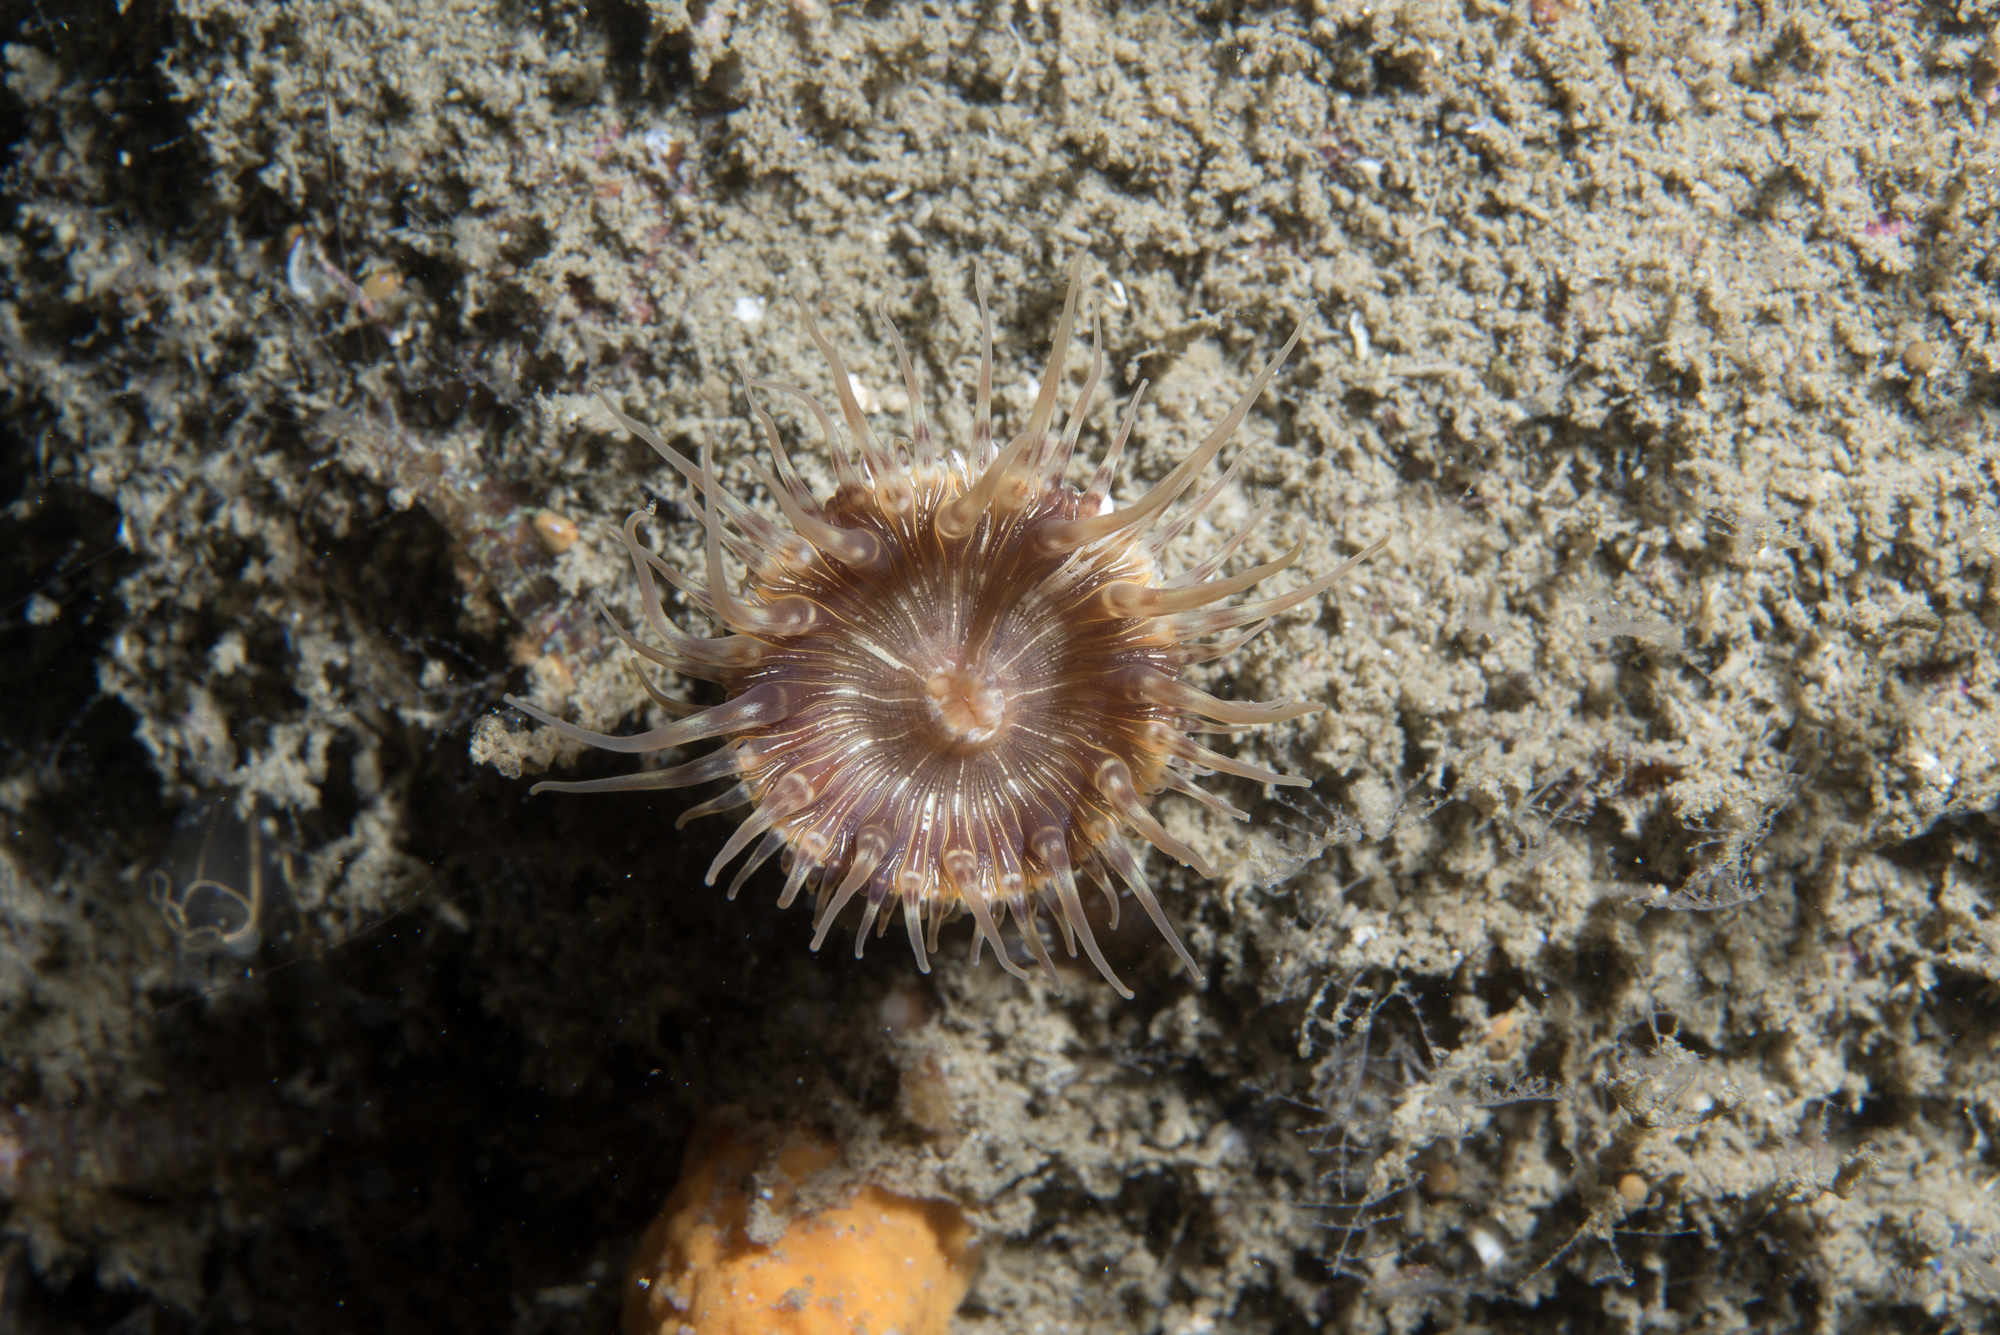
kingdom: Animalia
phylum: Cnidaria
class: Anthozoa
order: Actiniaria
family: Hormathiidae
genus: Hormathia
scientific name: Hormathia coronata
